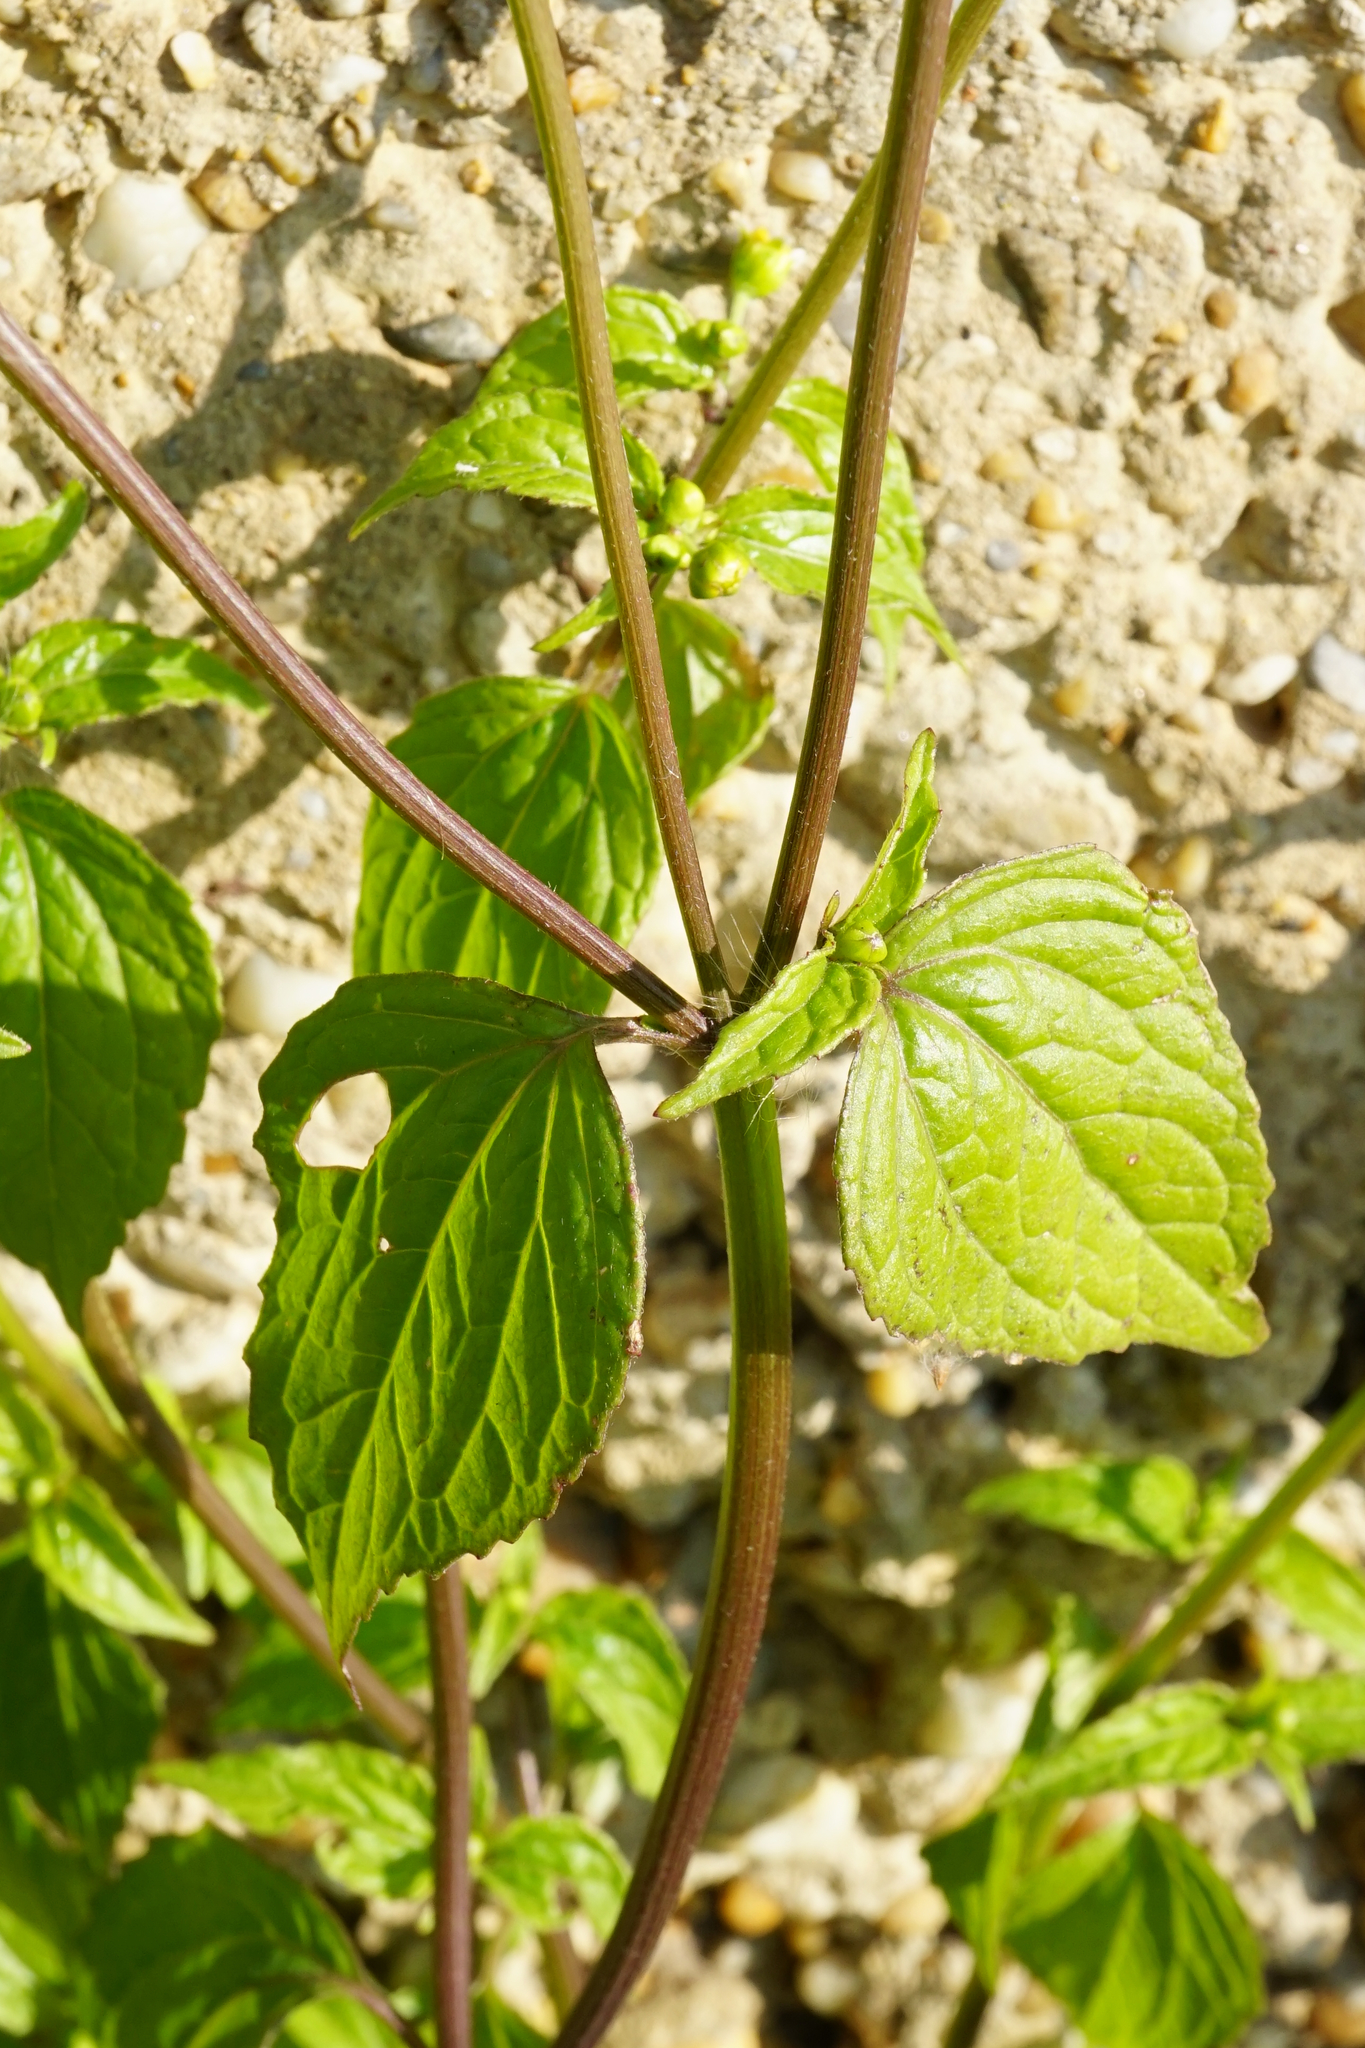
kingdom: Plantae
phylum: Tracheophyta
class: Magnoliopsida
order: Asterales
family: Asteraceae
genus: Galinsoga
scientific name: Galinsoga parviflora
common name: Gallant soldier
